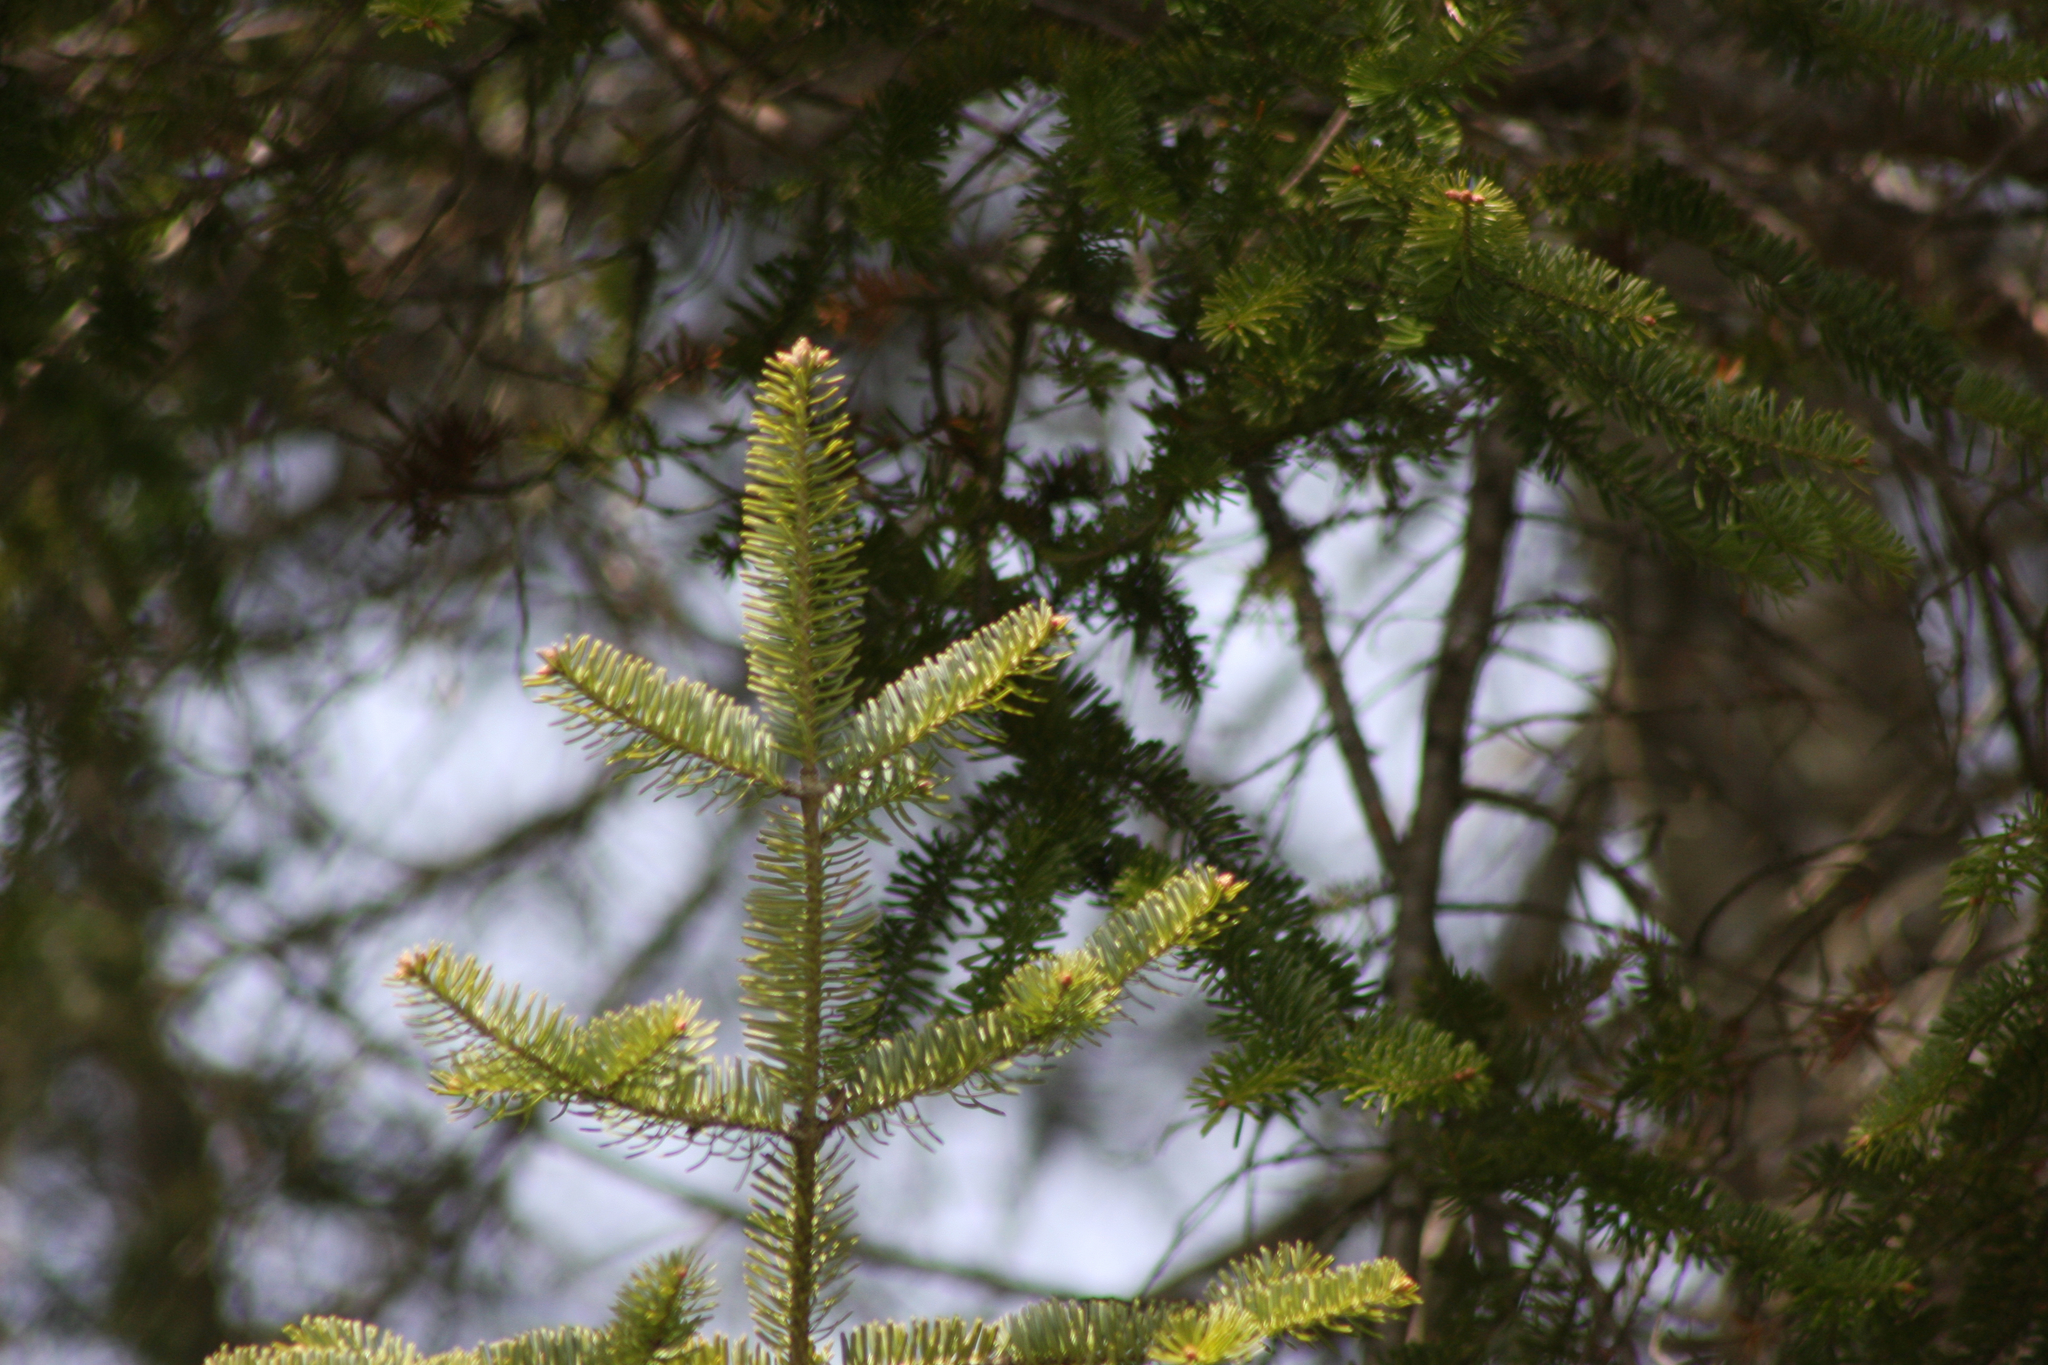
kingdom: Plantae
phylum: Tracheophyta
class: Pinopsida
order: Pinales
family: Pinaceae
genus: Abies
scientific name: Abies balsamea
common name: Balsam fir
